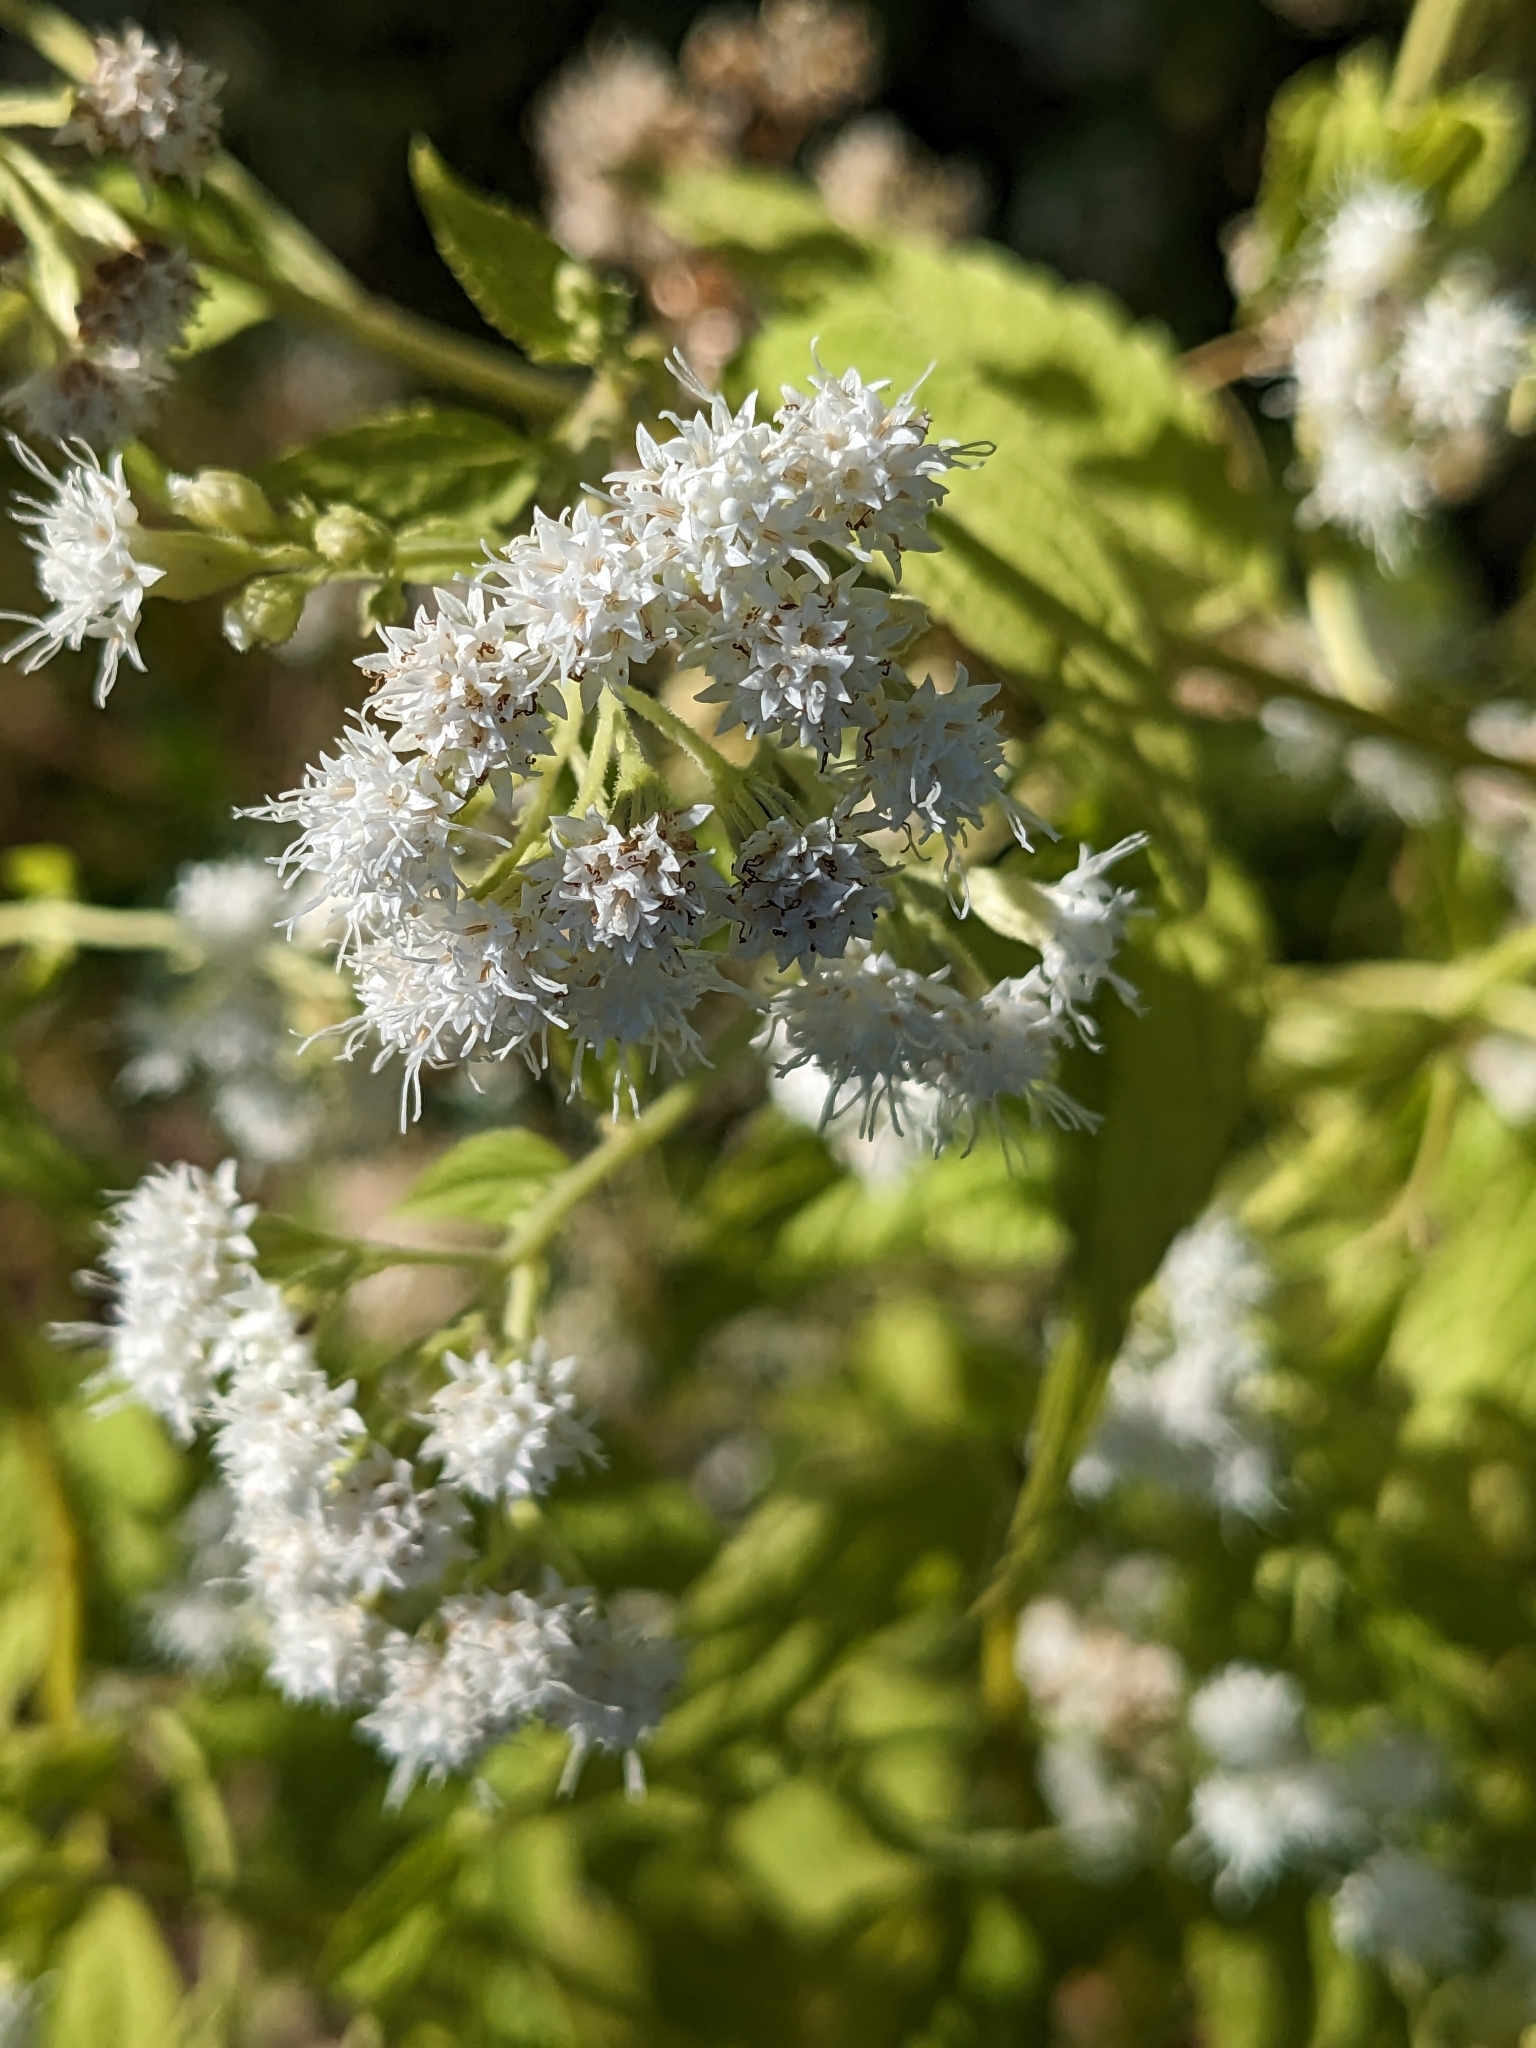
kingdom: Plantae
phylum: Tracheophyta
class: Magnoliopsida
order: Asterales
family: Asteraceae
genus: Ageratina
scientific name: Ageratina altissima
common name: White snakeroot
